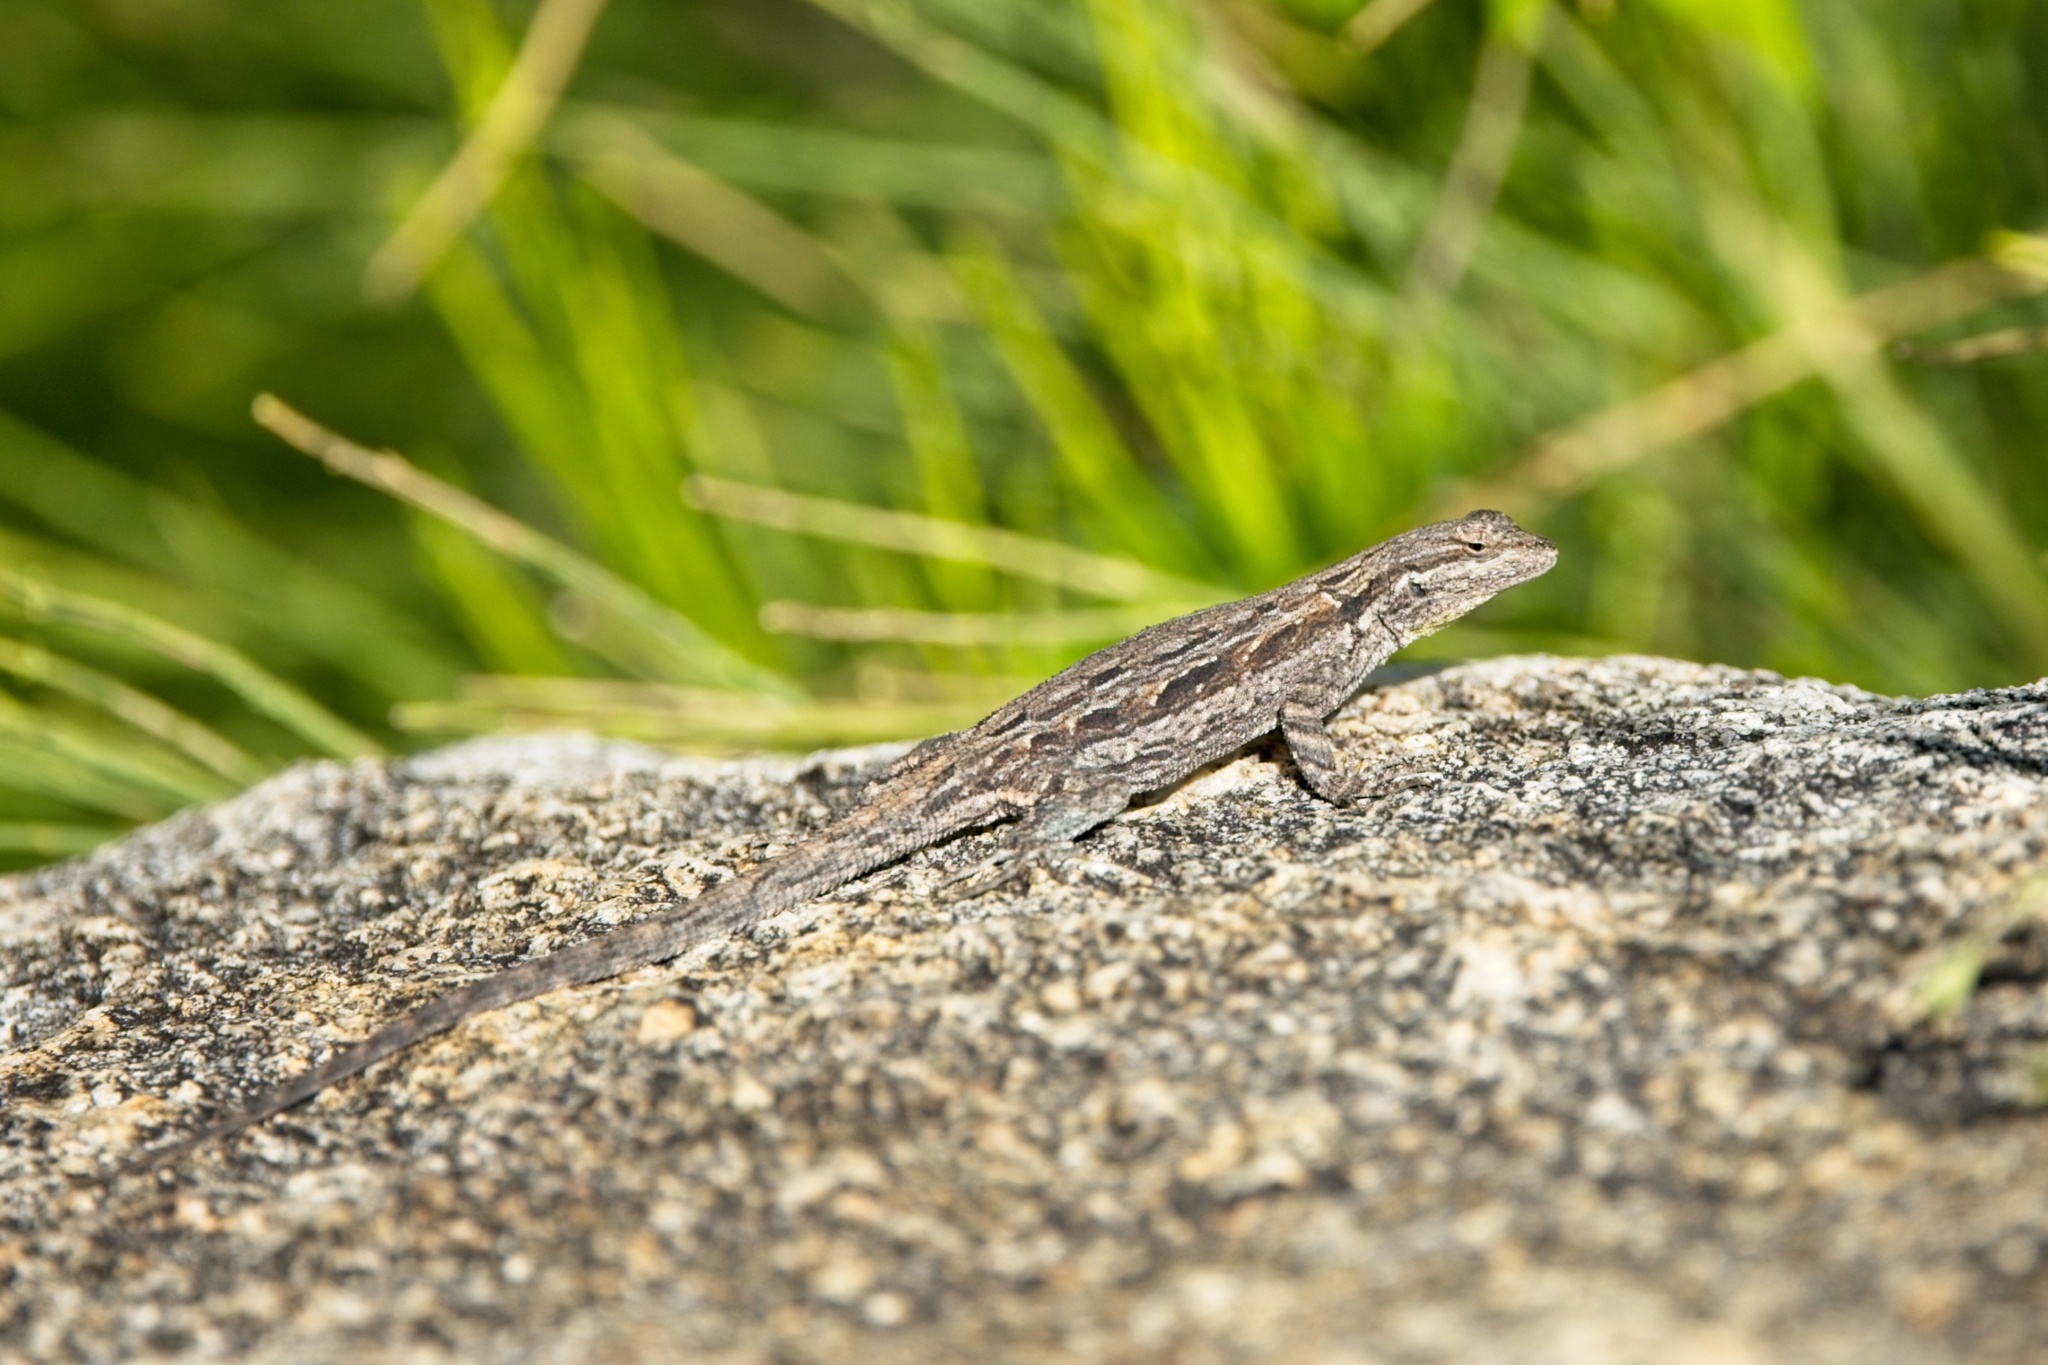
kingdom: Animalia
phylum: Chordata
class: Squamata
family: Phrynosomatidae
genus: Urosaurus
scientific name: Urosaurus ornatus
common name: Ornate tree lizard
